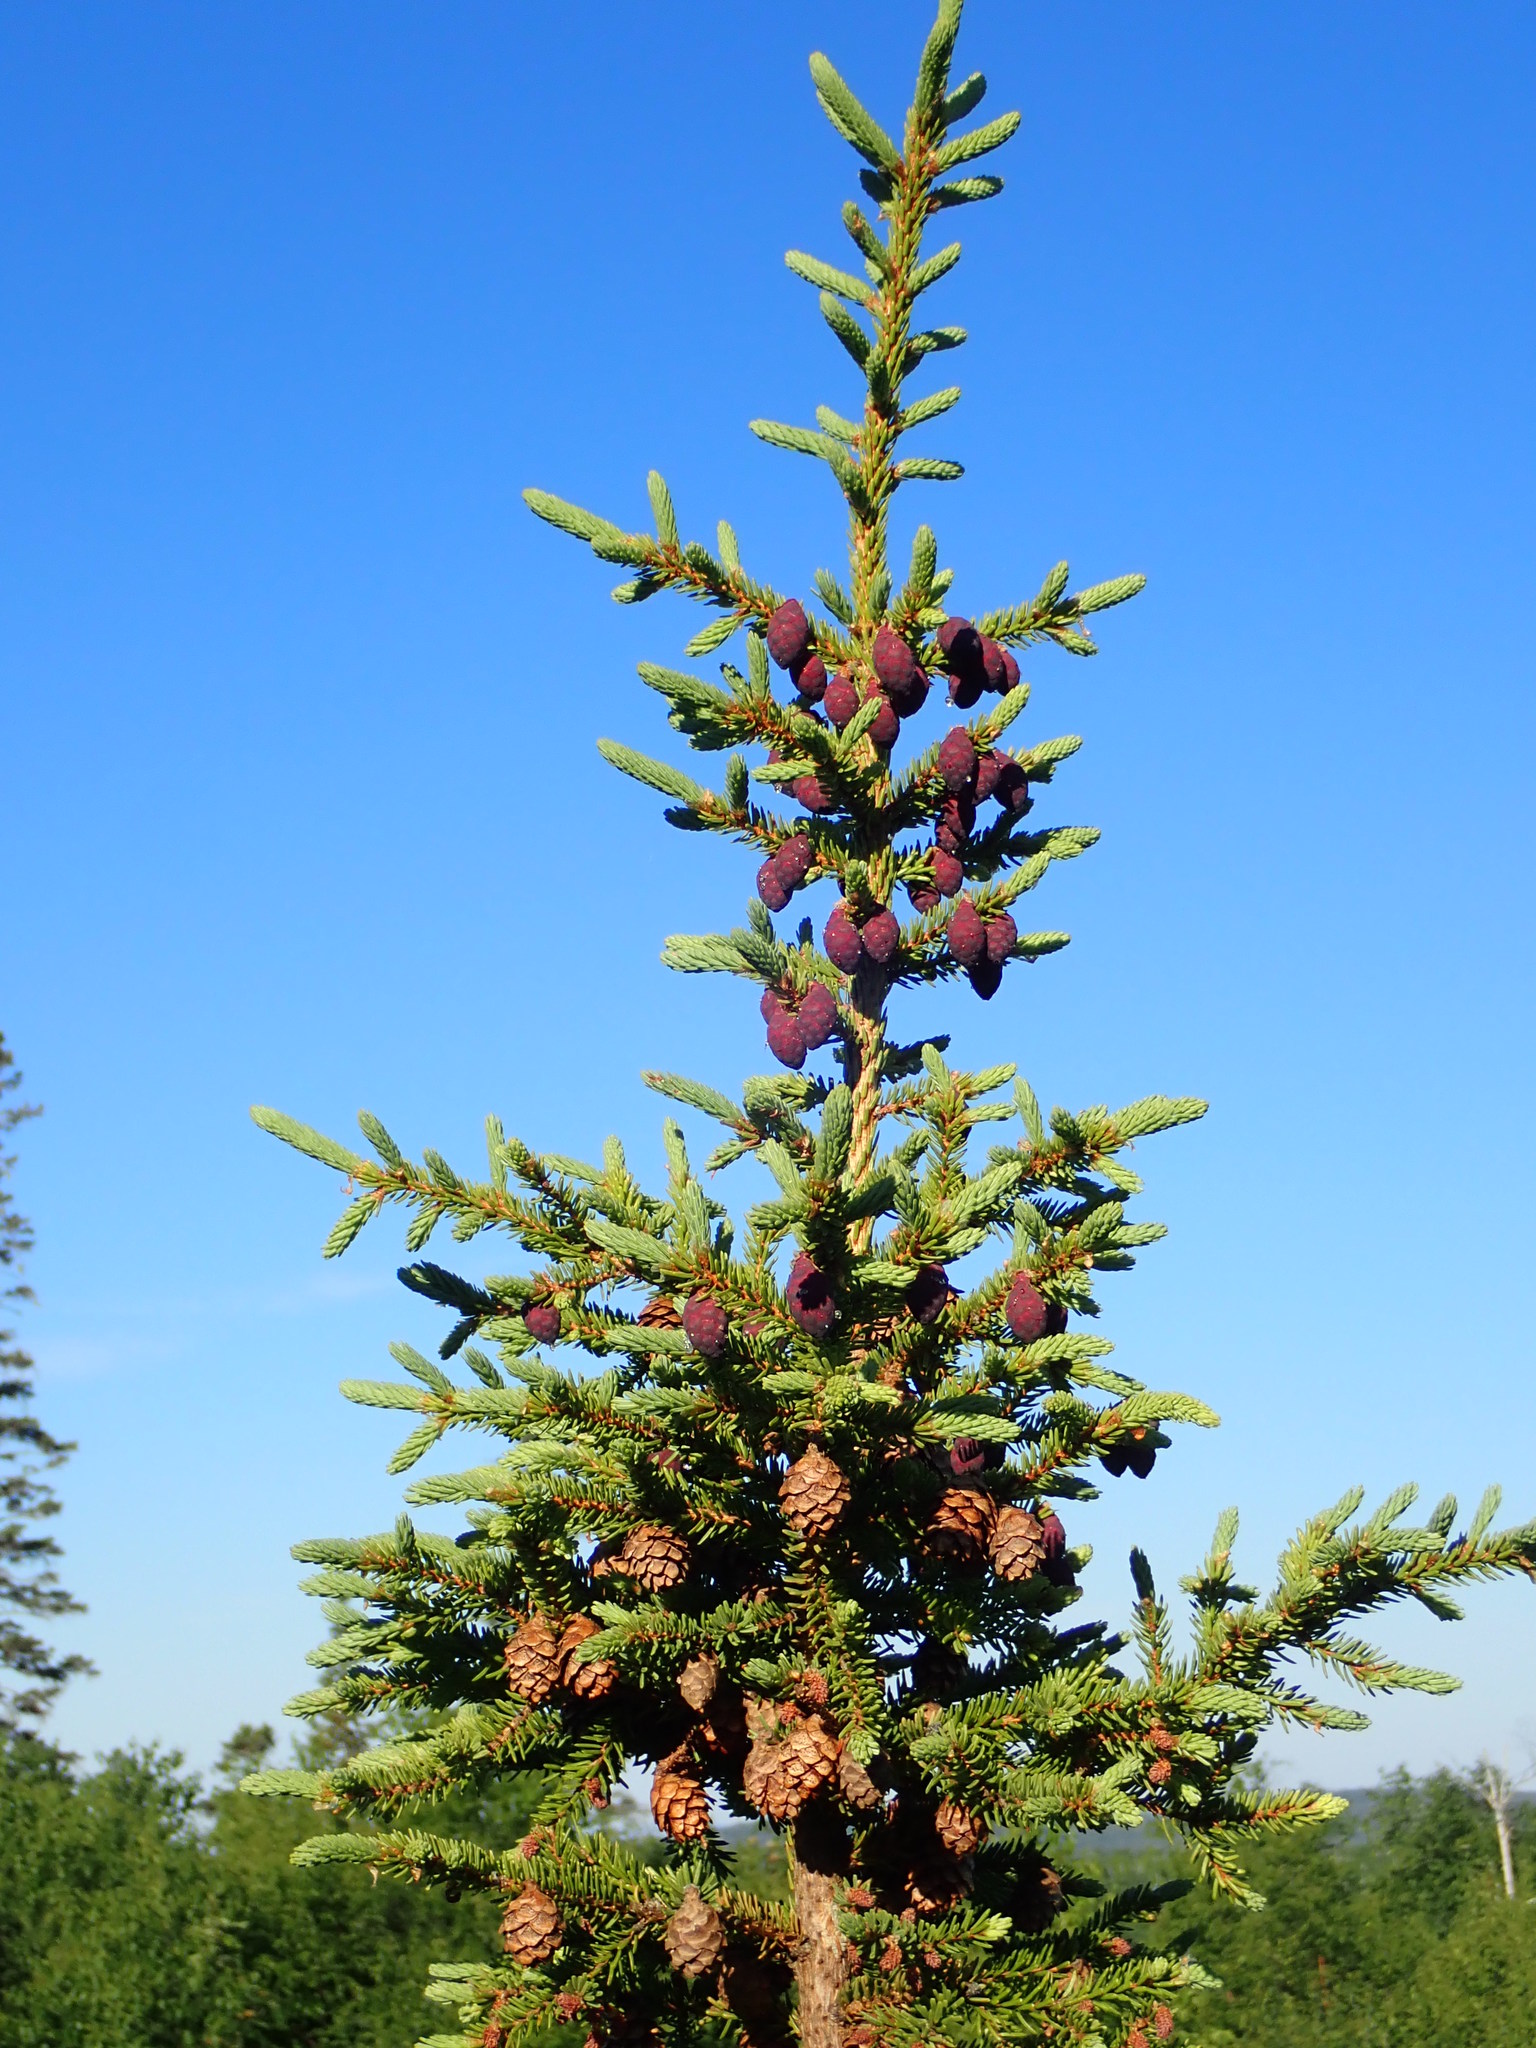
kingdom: Plantae
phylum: Tracheophyta
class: Pinopsida
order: Pinales
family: Pinaceae
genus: Picea
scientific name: Picea mariana
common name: Black spruce
